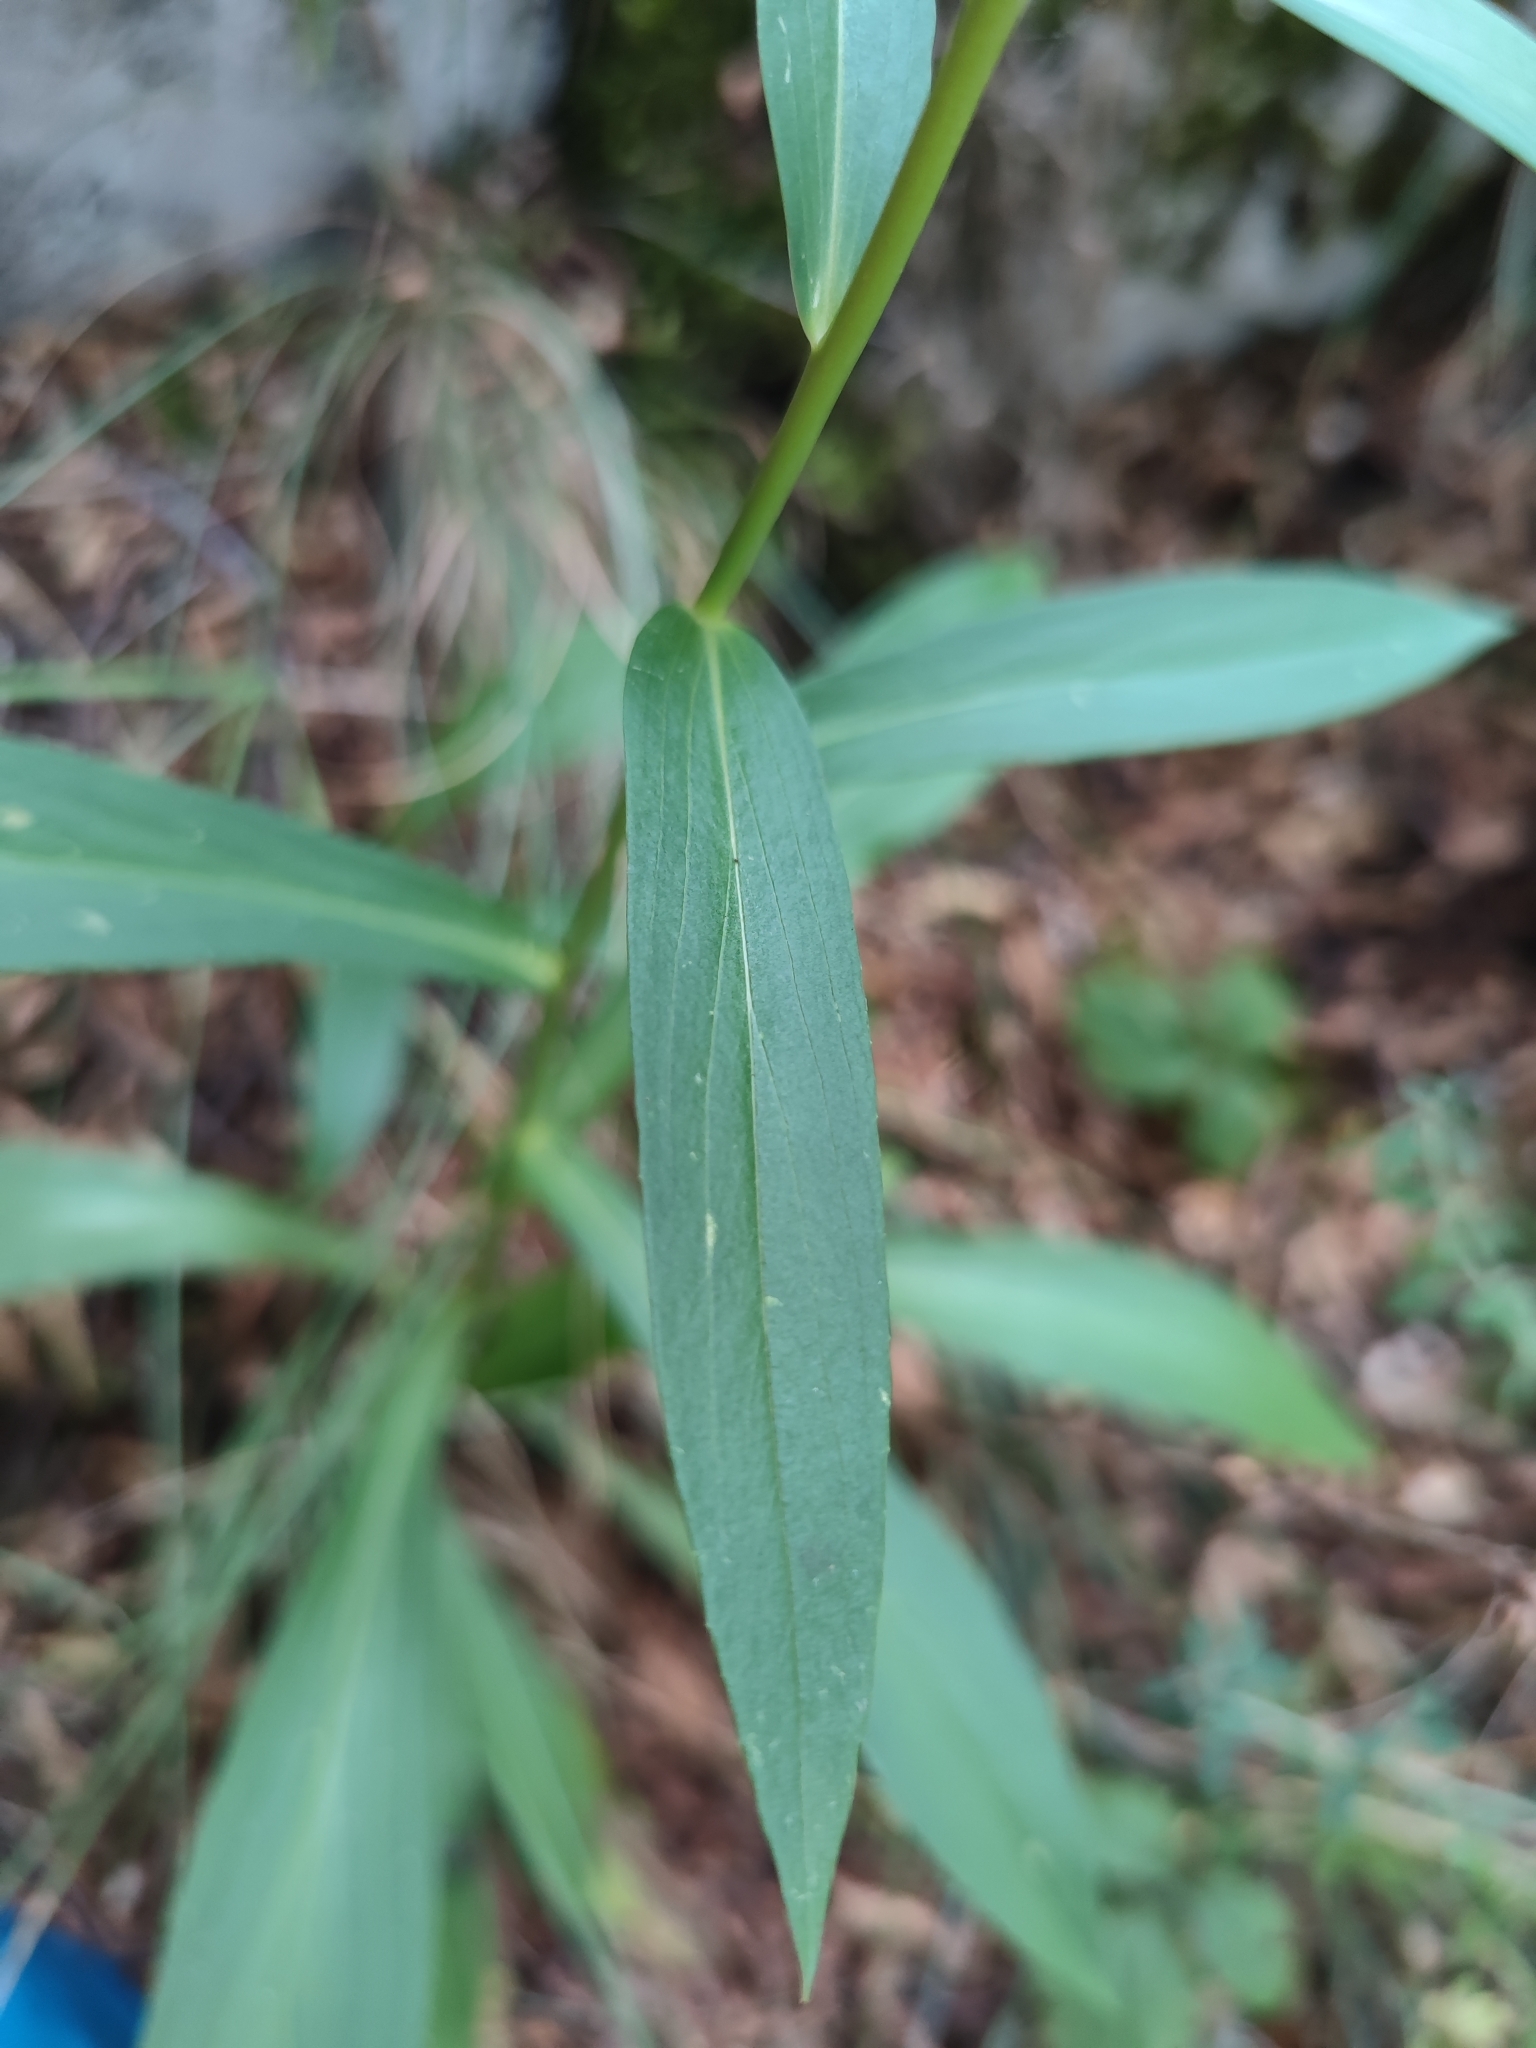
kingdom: Plantae
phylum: Tracheophyta
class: Magnoliopsida
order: Lamiales
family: Plantaginaceae
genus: Digitalis
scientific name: Digitalis lutea
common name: Straw foxglove
